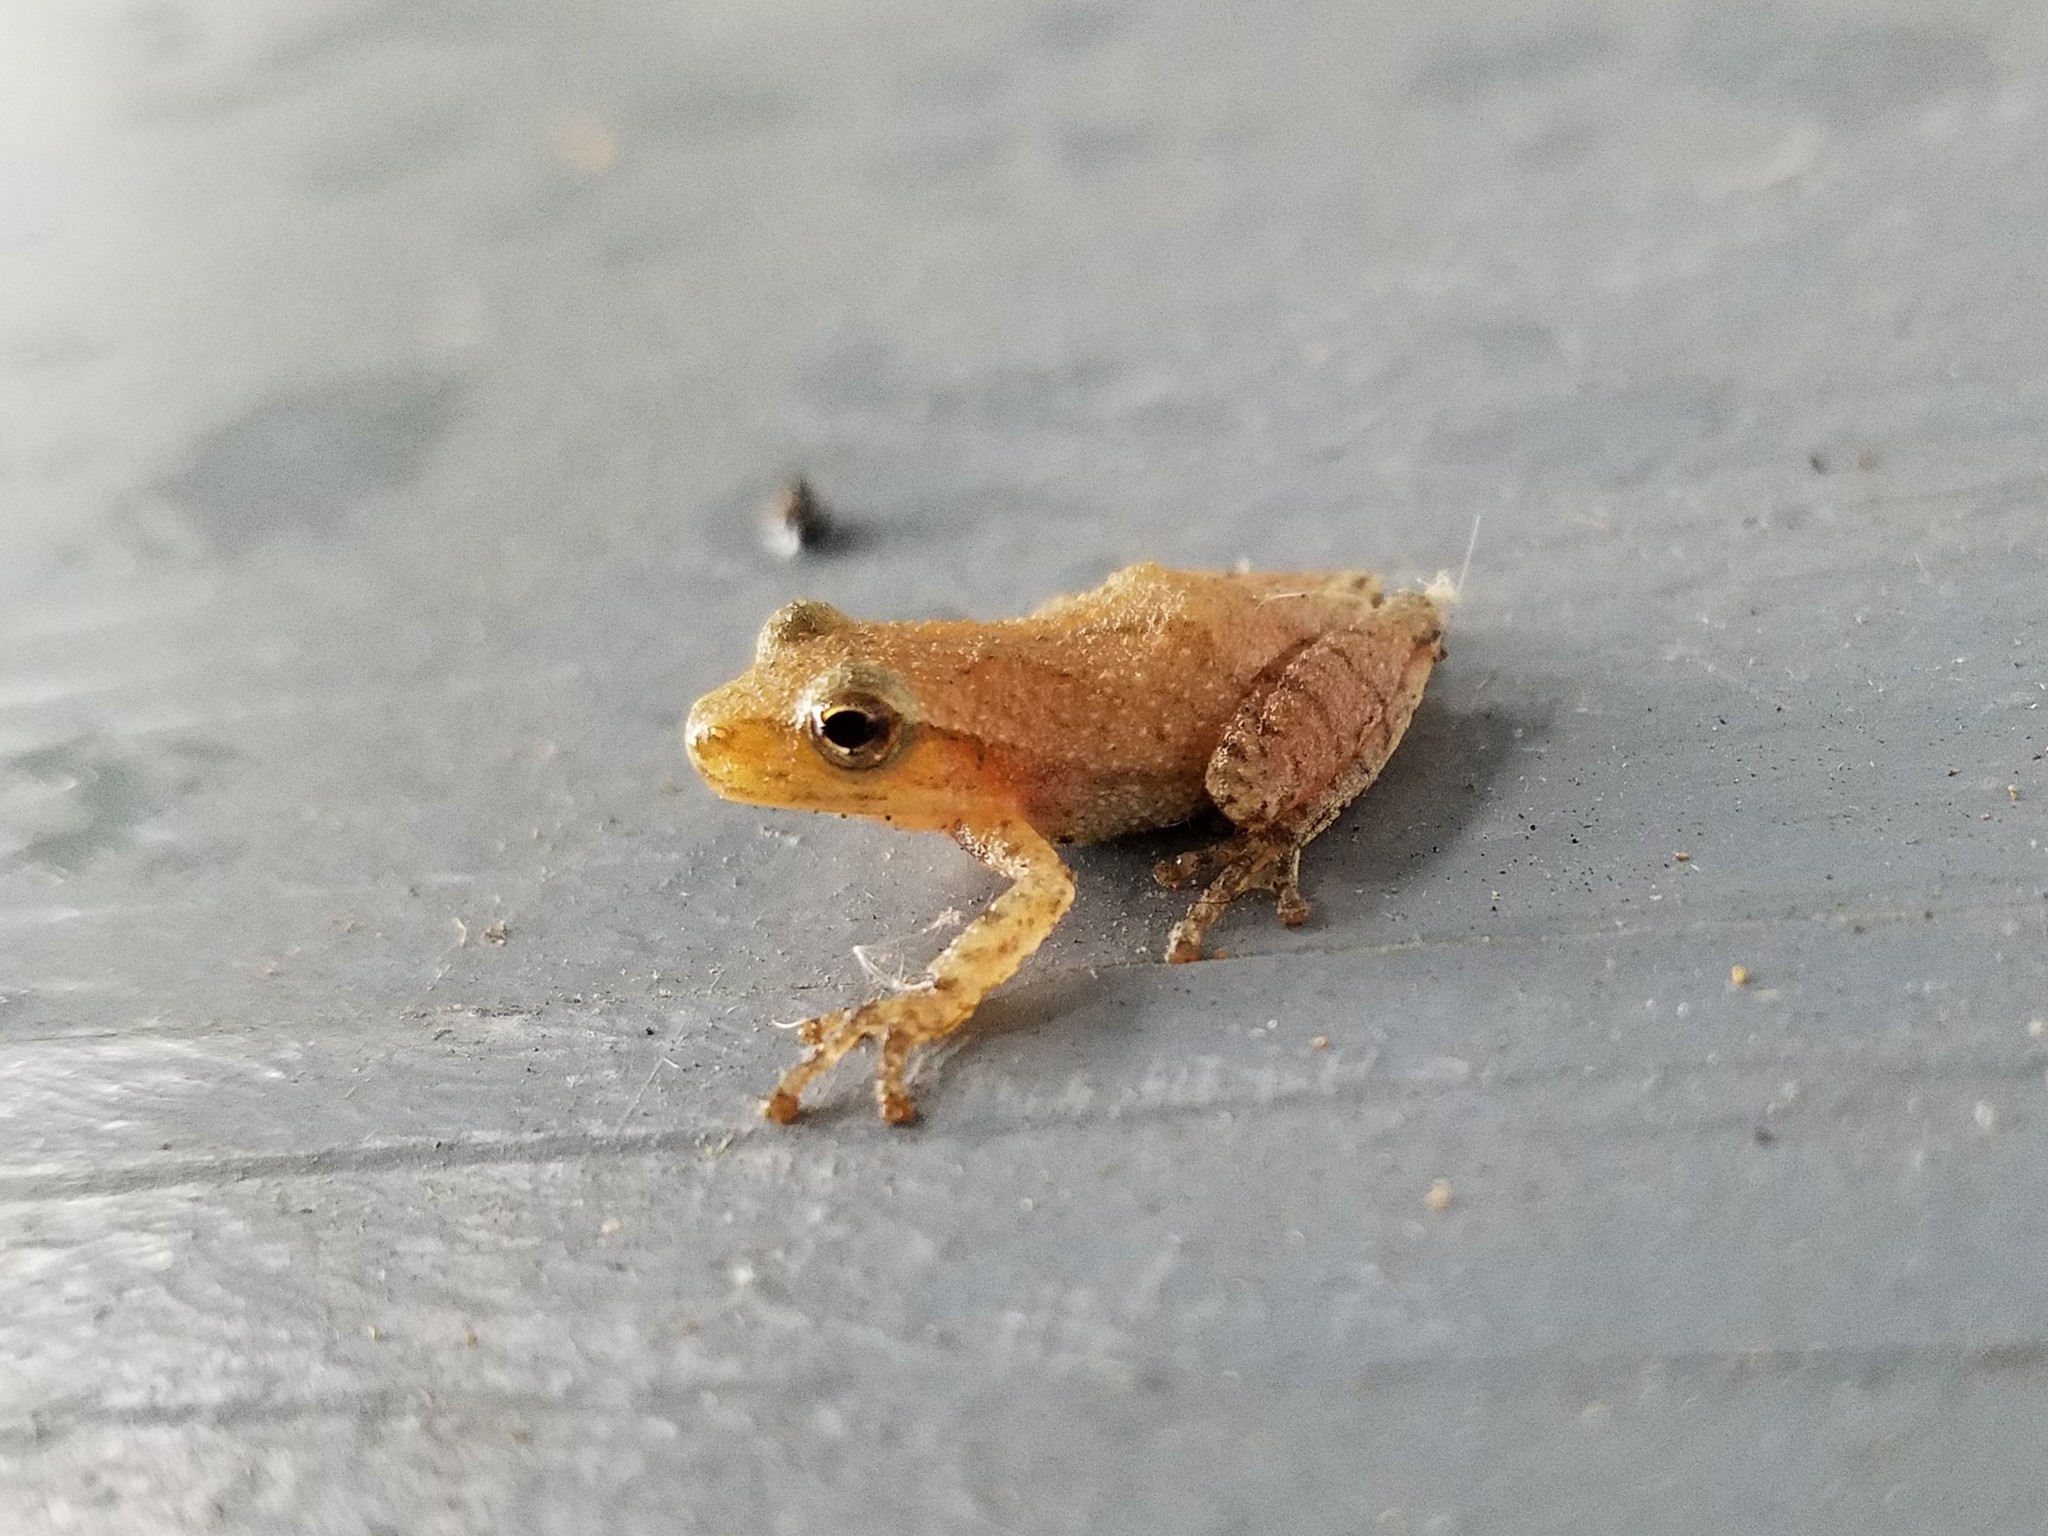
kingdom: Animalia
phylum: Chordata
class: Amphibia
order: Anura
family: Hylidae
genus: Pseudacris
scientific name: Pseudacris crucifer
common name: Spring peeper
